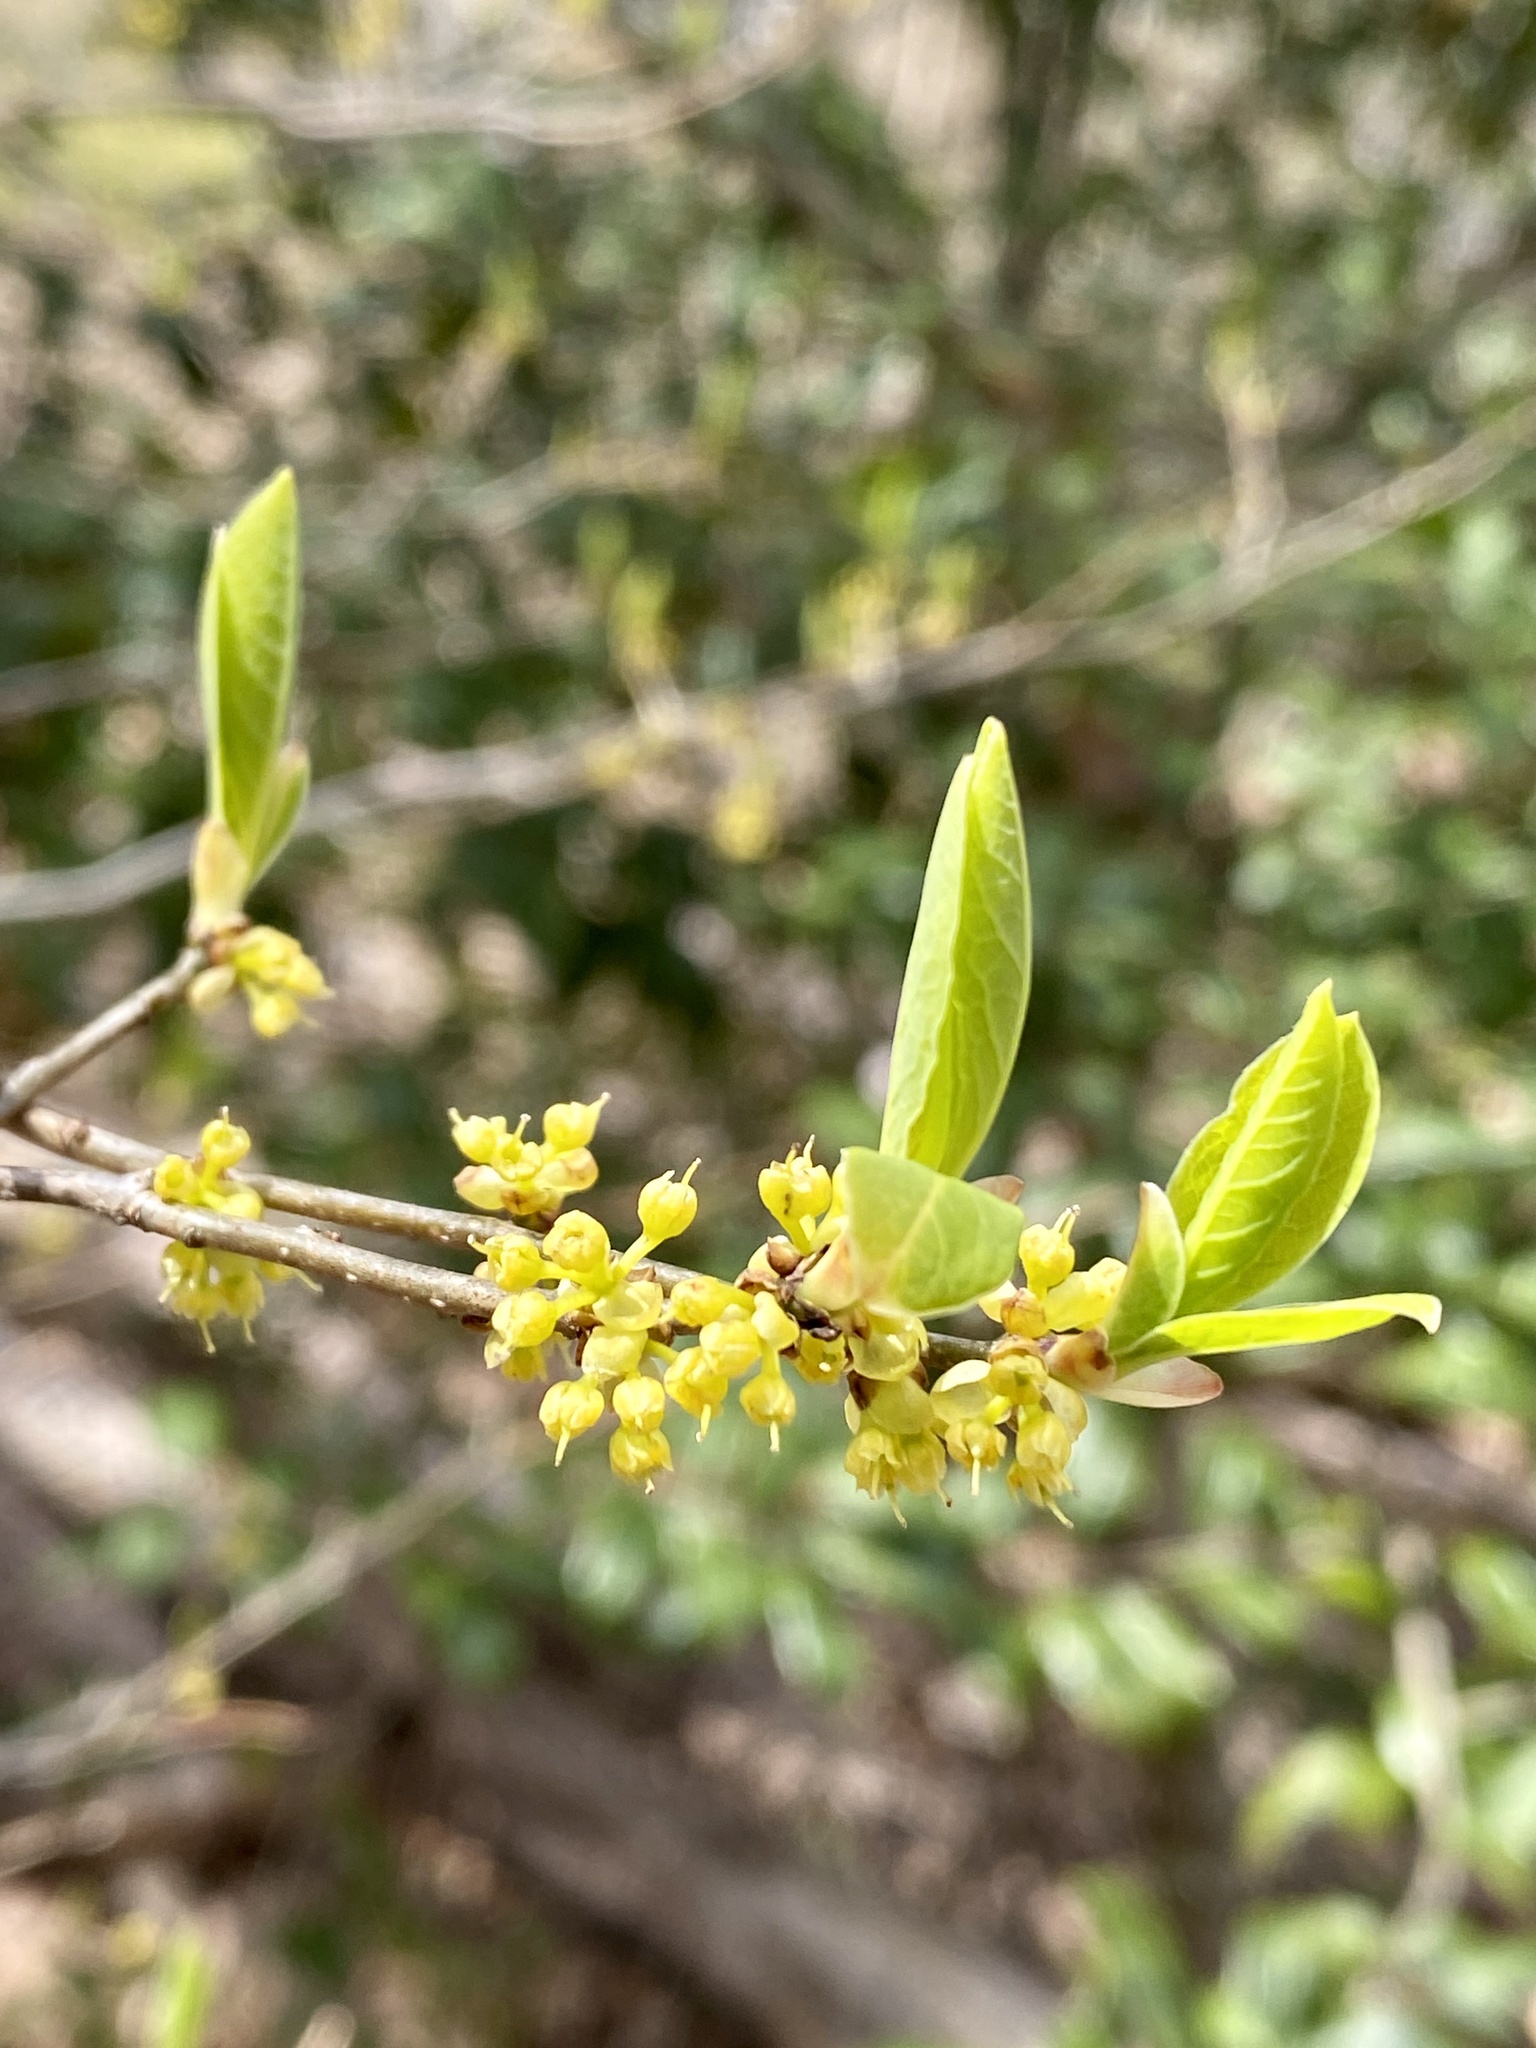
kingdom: Plantae
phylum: Tracheophyta
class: Magnoliopsida
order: Laurales
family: Lauraceae
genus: Lindera
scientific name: Lindera benzoin
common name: Spicebush
